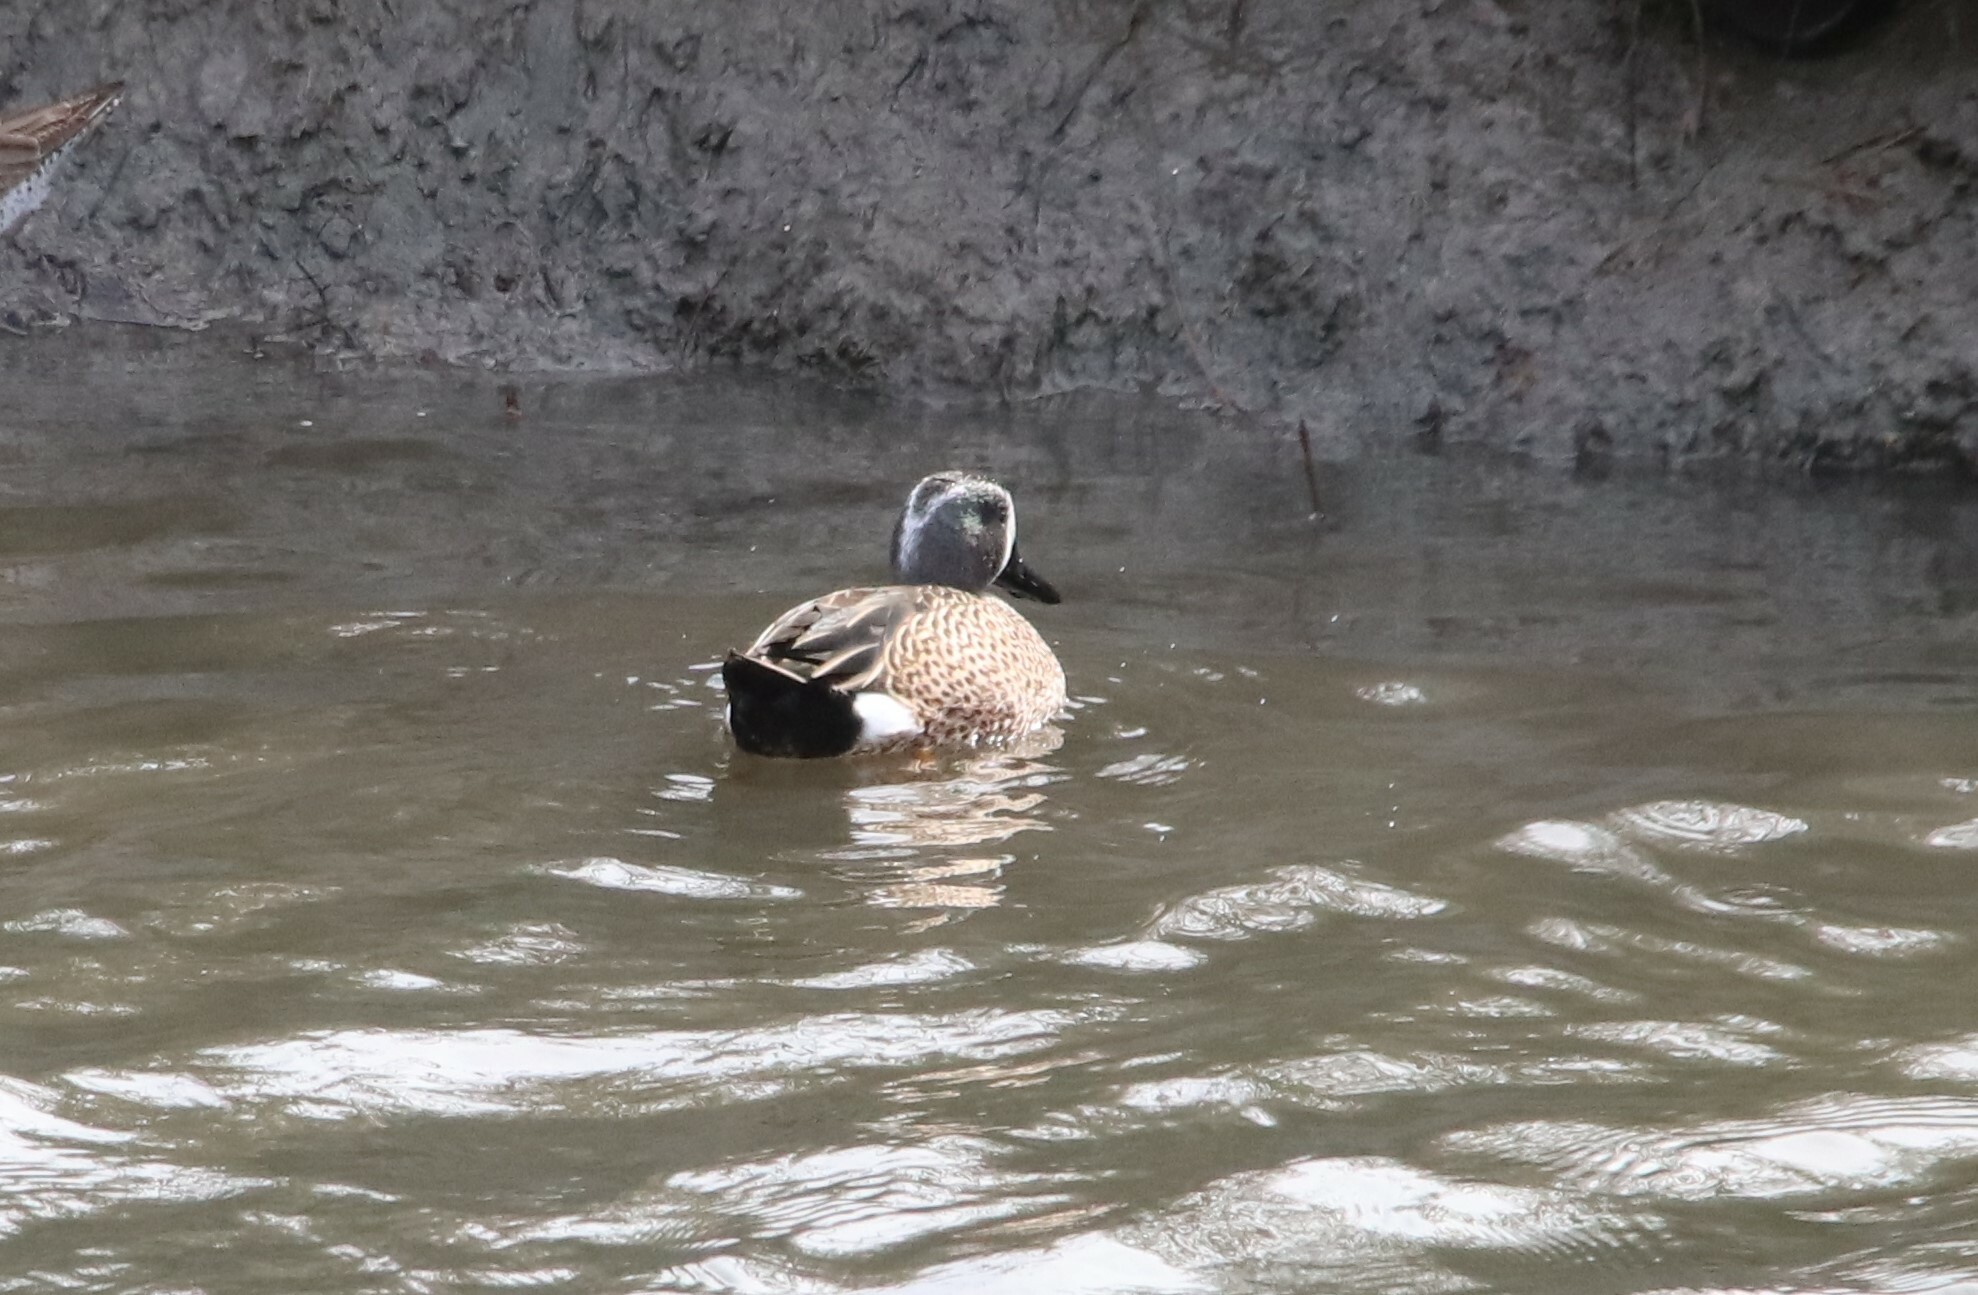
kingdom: Animalia
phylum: Chordata
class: Aves
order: Anseriformes
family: Anatidae
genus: Spatula
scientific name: Spatula discors
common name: Blue-winged teal
